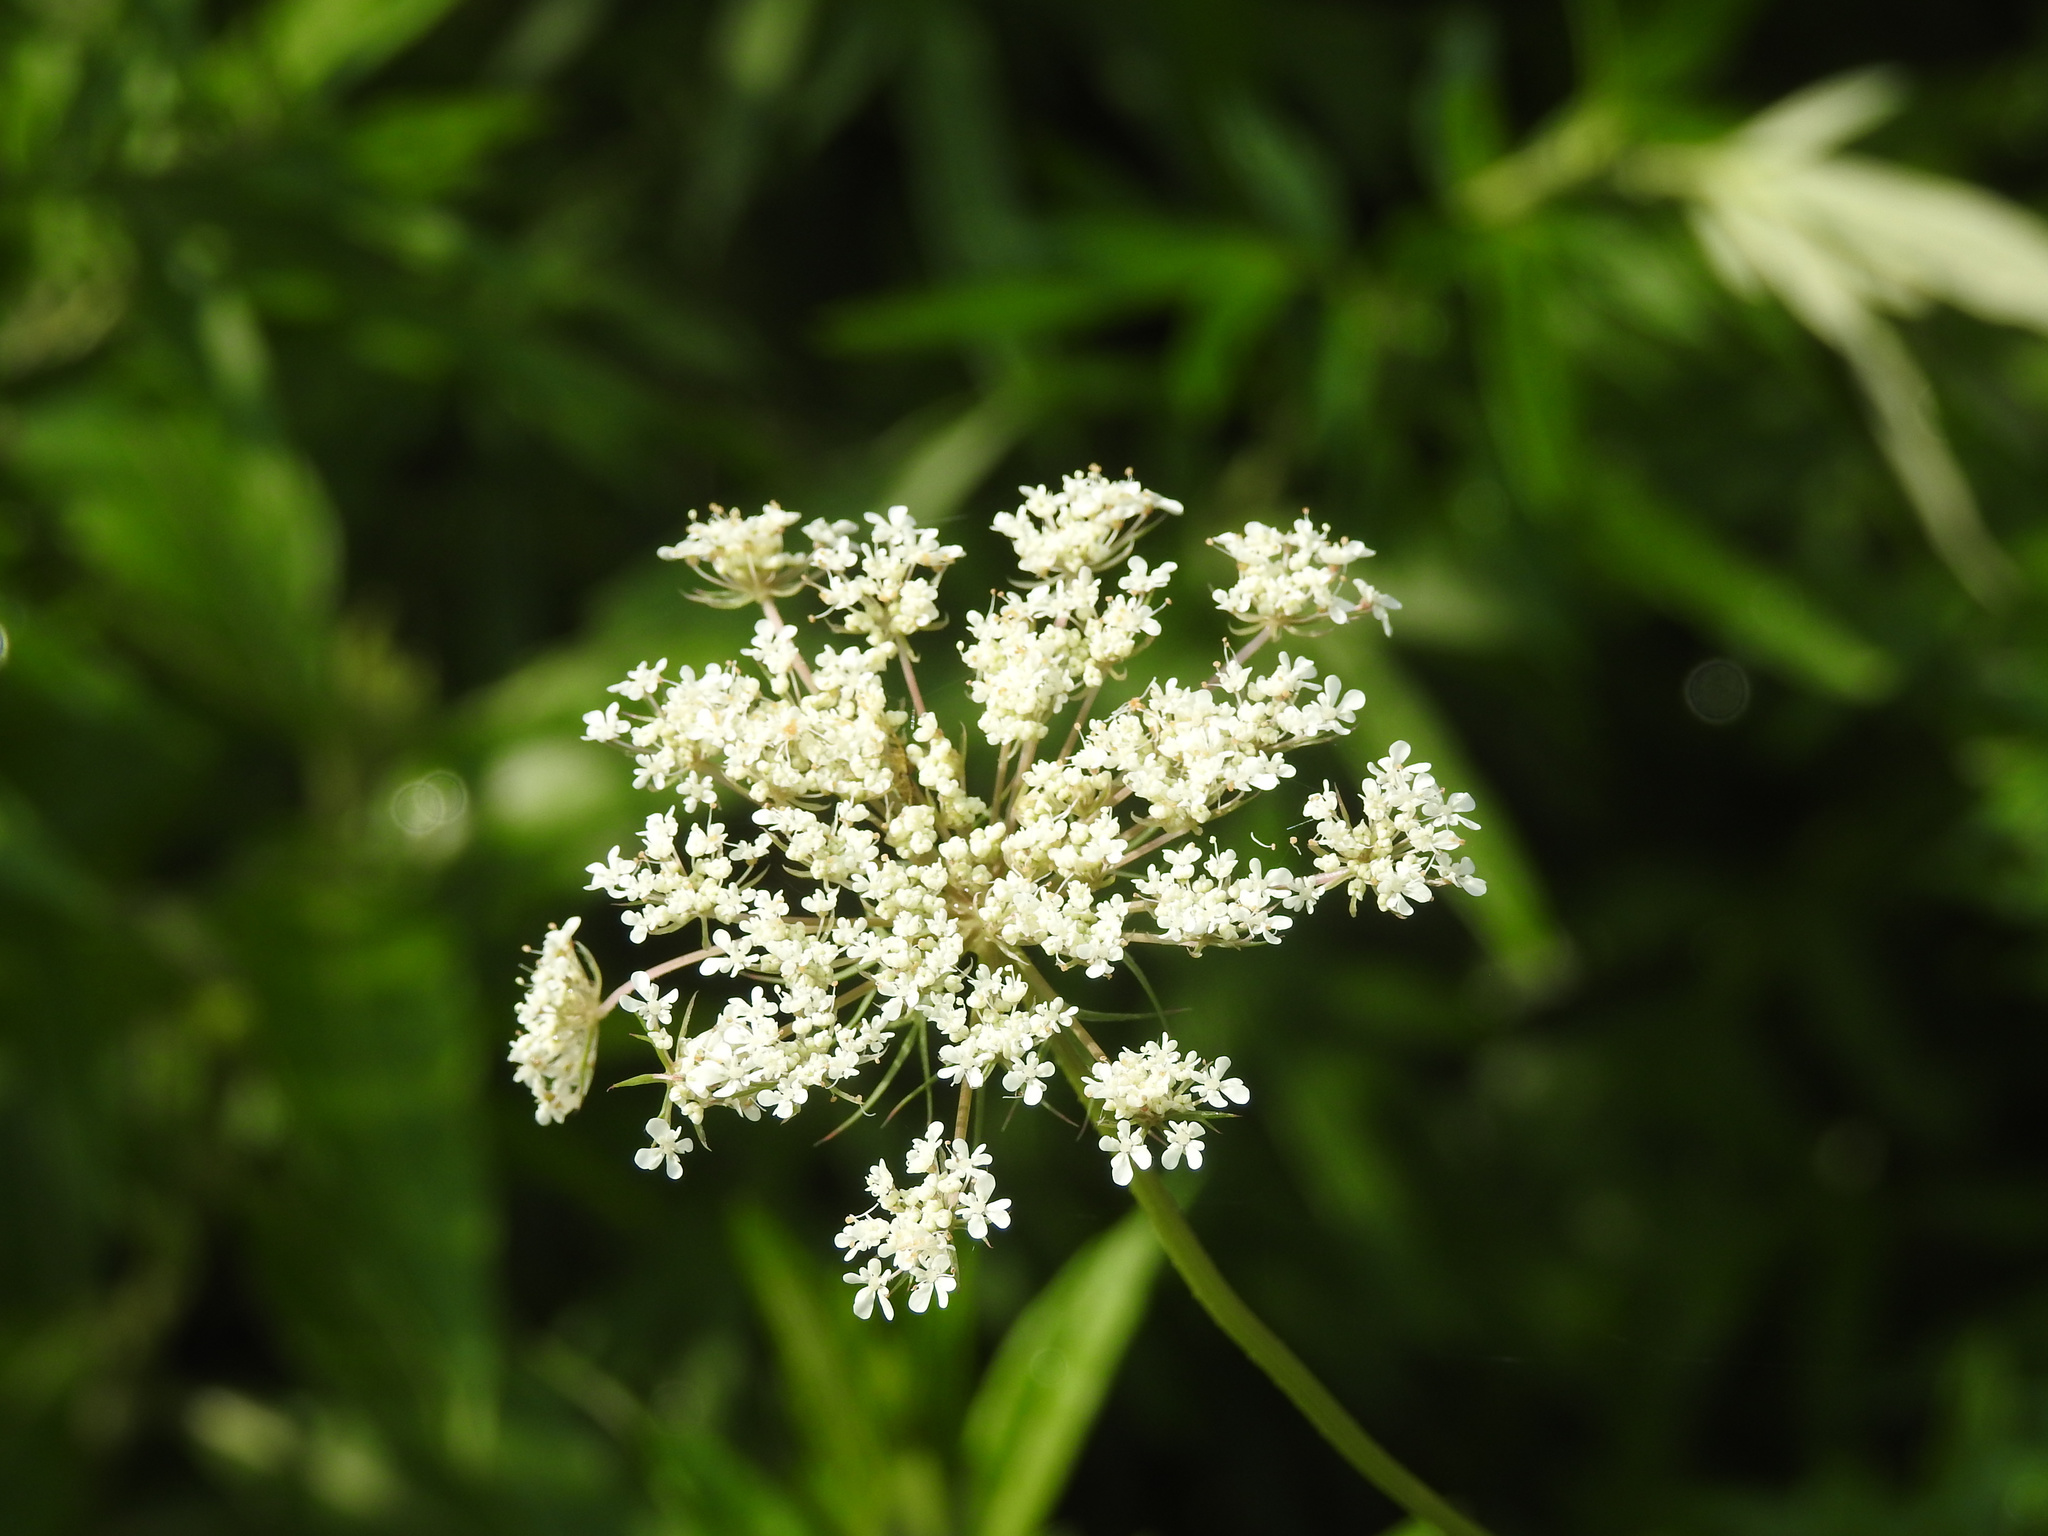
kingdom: Plantae
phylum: Tracheophyta
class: Magnoliopsida
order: Apiales
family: Apiaceae
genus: Daucus
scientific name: Daucus carota
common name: Wild carrot
